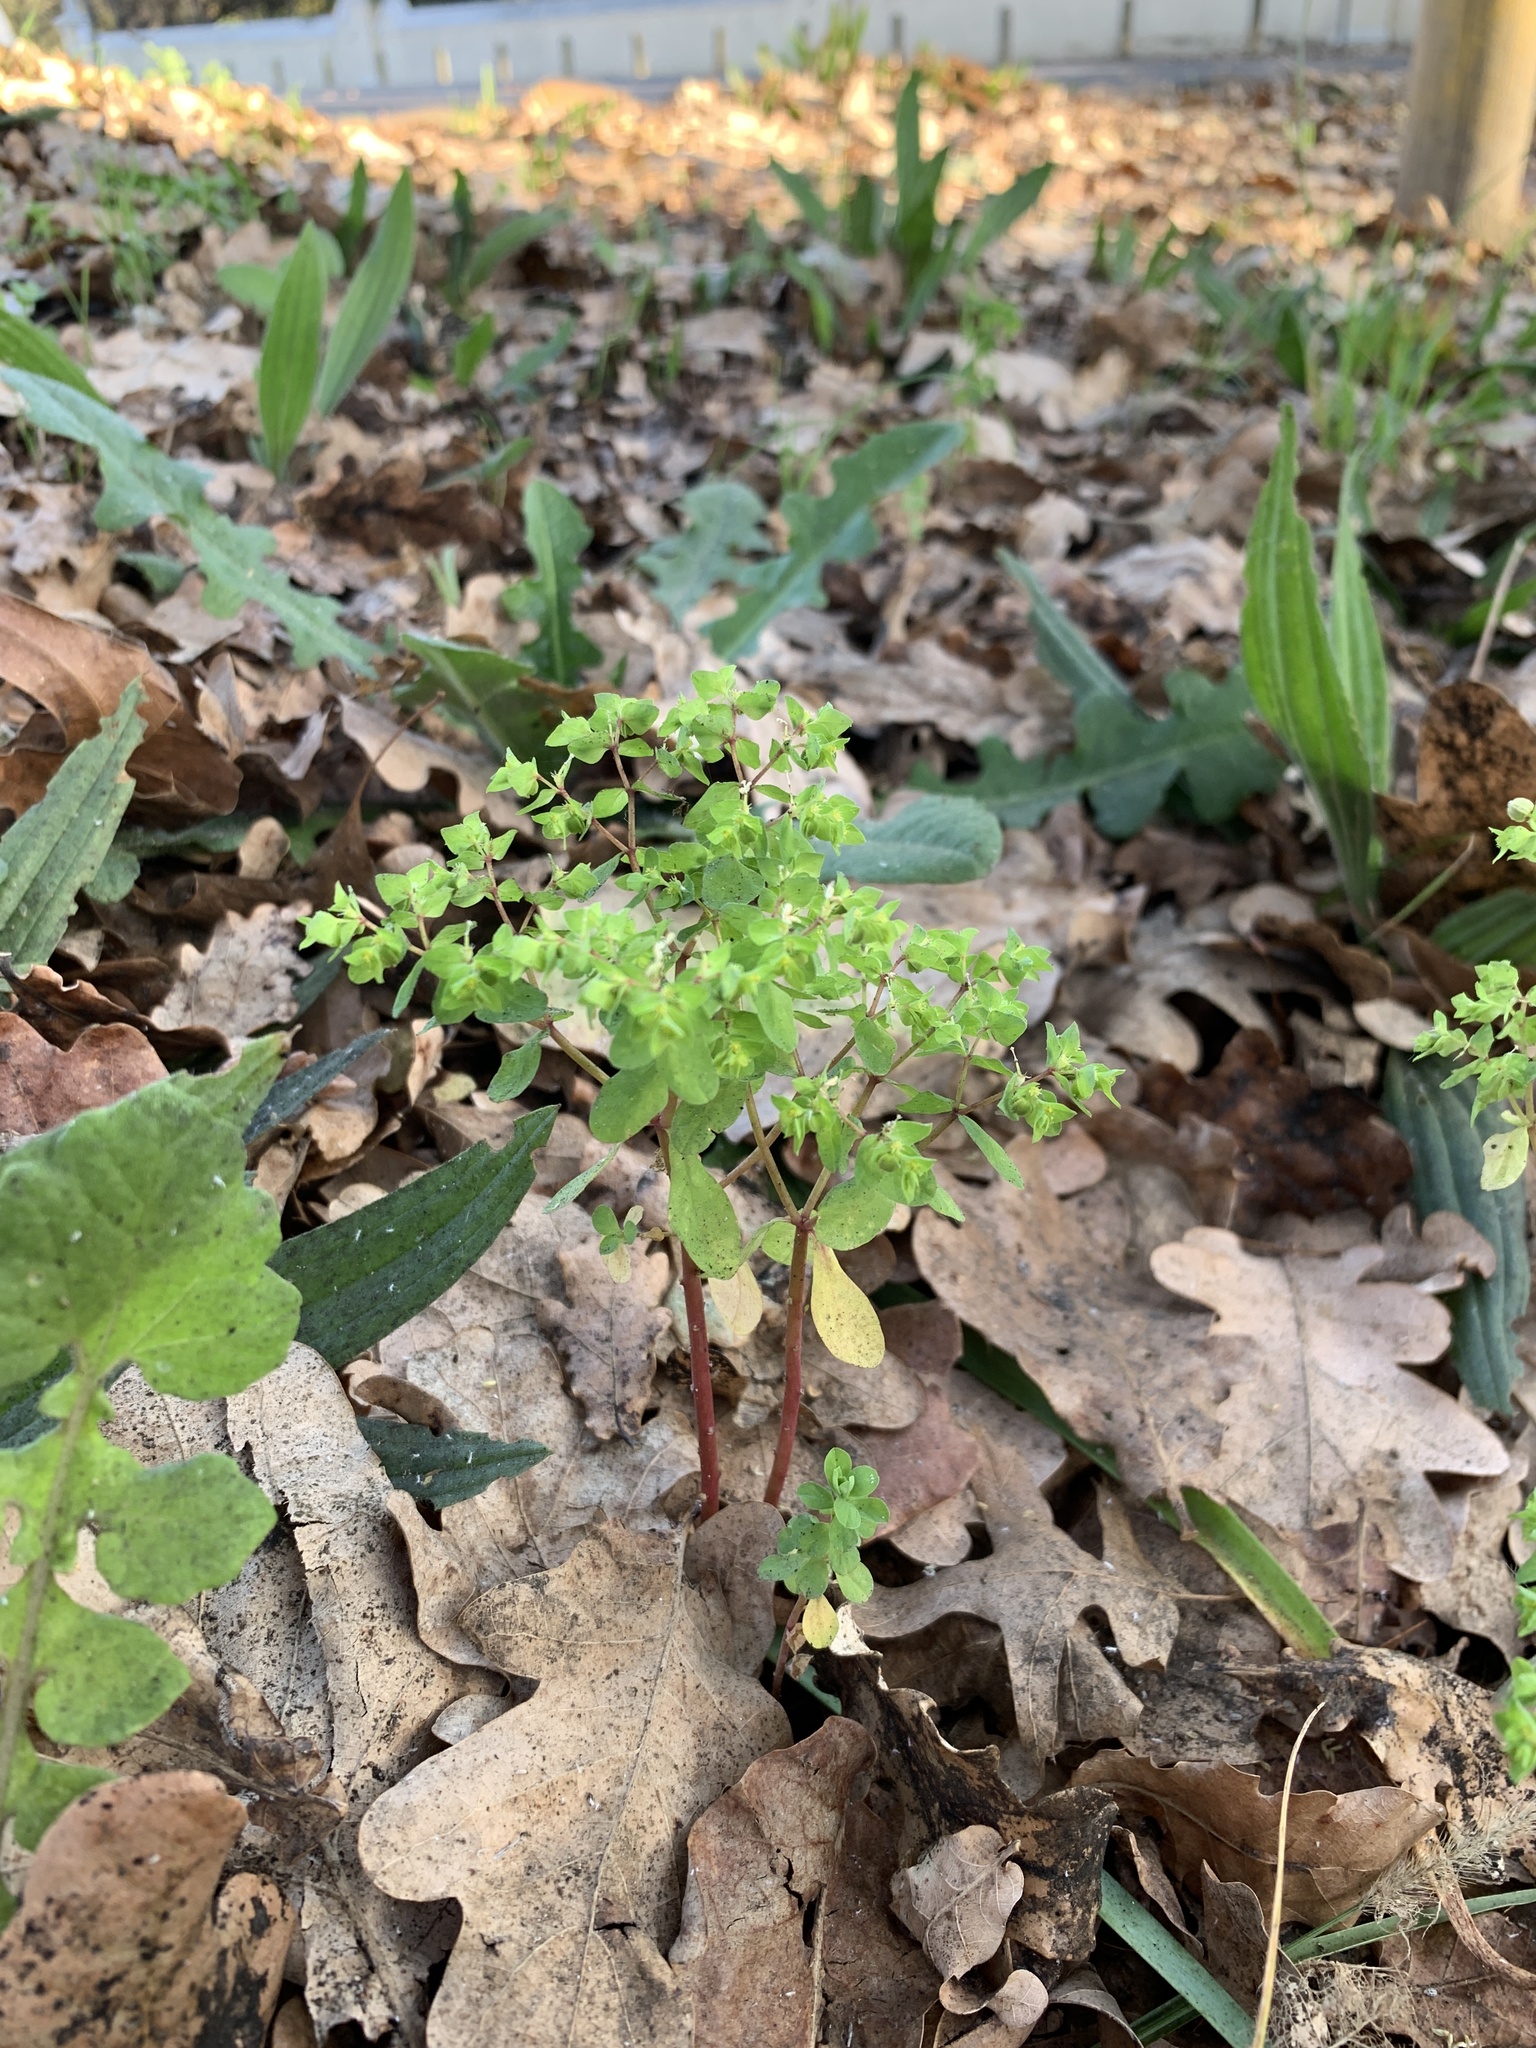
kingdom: Plantae
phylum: Tracheophyta
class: Magnoliopsida
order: Malpighiales
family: Euphorbiaceae
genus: Euphorbia
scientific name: Euphorbia peplus
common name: Petty spurge
